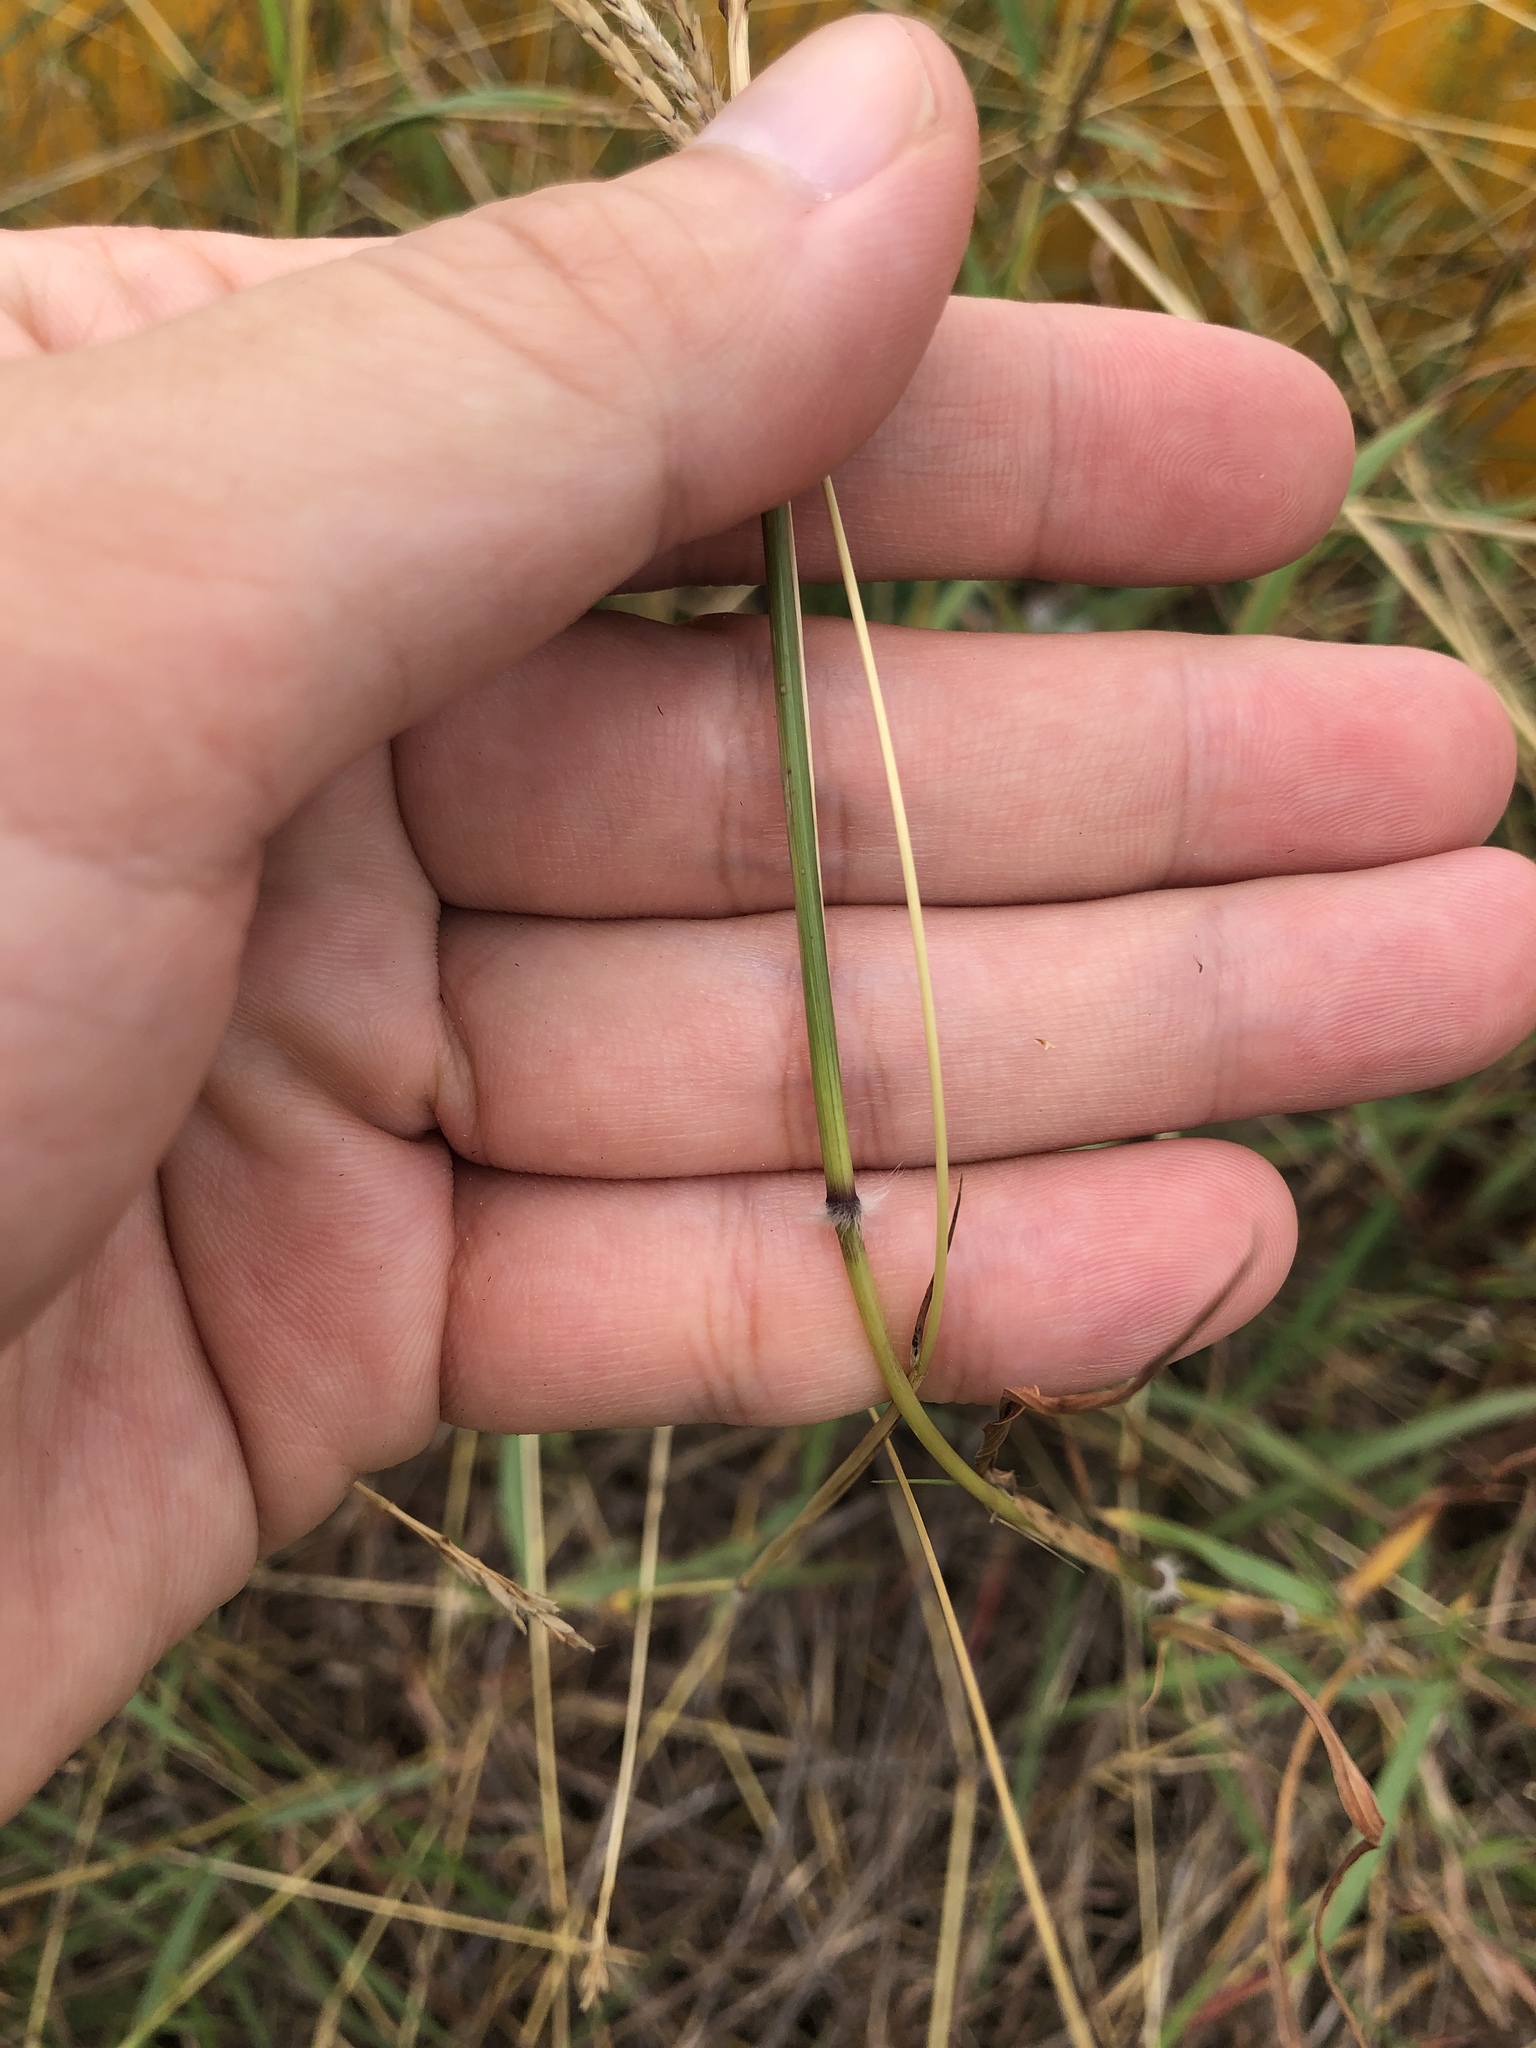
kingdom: Plantae
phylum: Tracheophyta
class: Liliopsida
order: Poales
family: Poaceae
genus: Dichanthium
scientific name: Dichanthium annulatum
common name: Kleberg's bluestem
